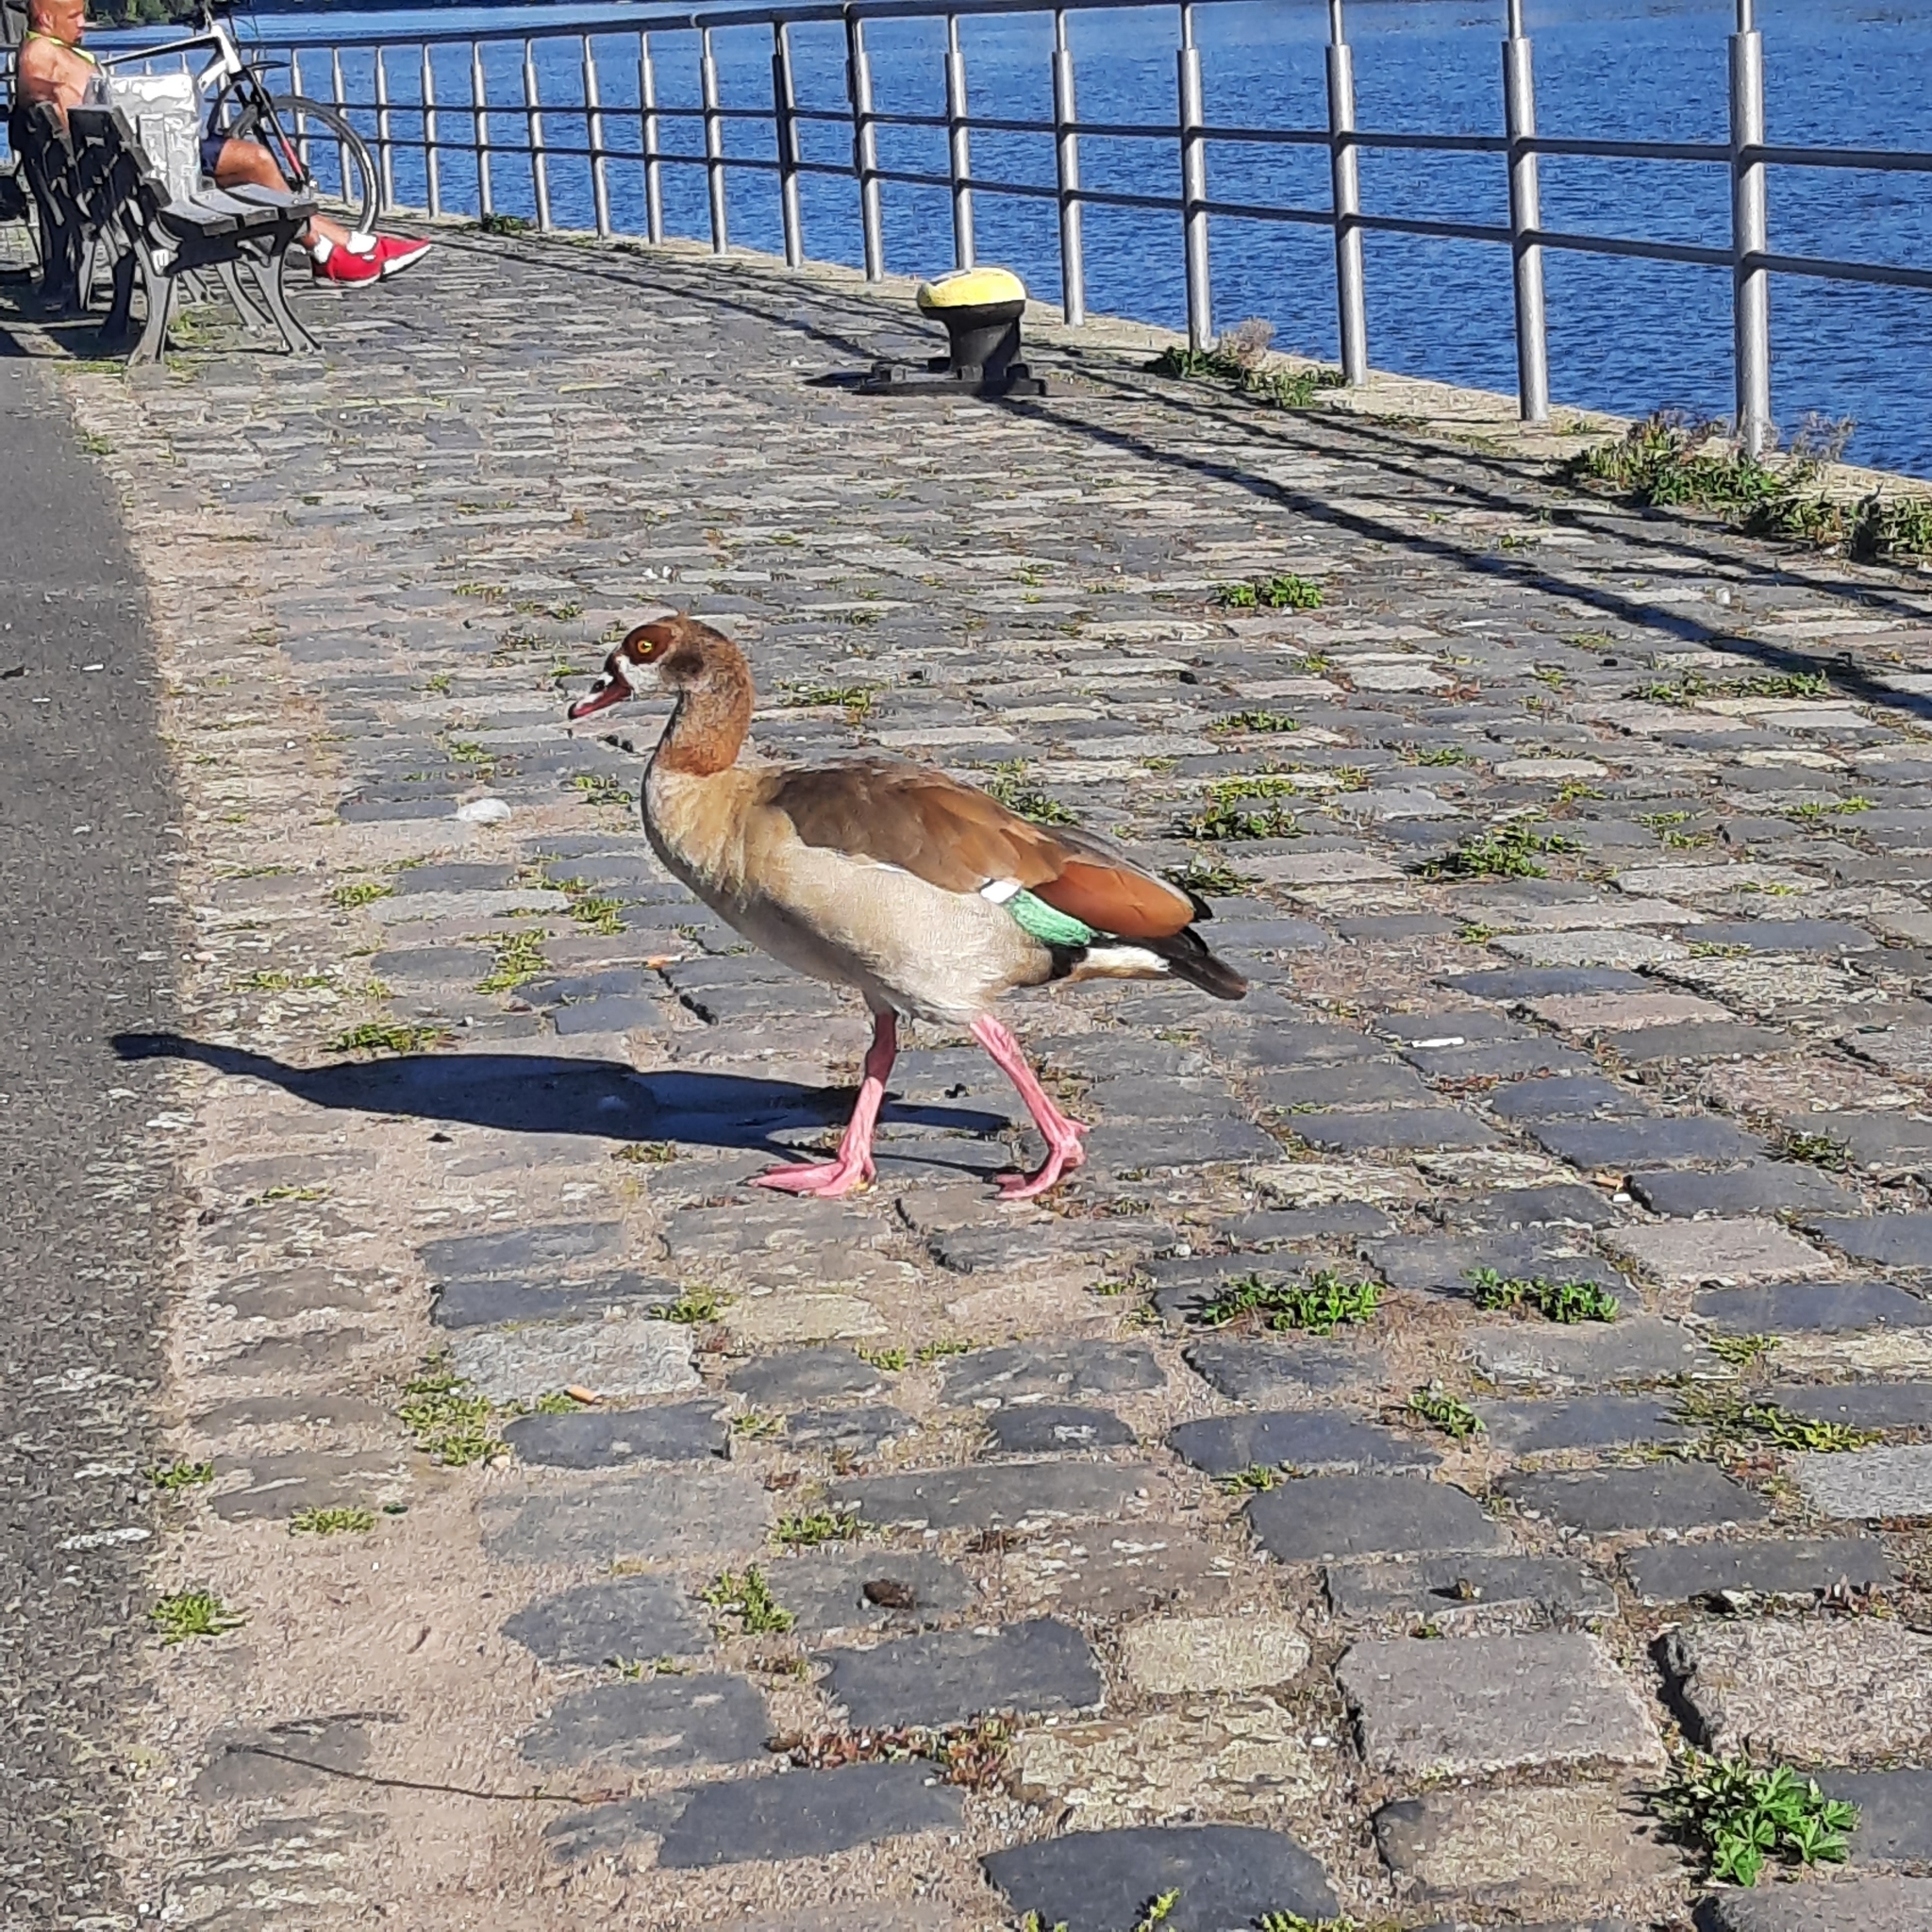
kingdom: Animalia
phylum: Chordata
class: Aves
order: Anseriformes
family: Anatidae
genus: Alopochen
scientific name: Alopochen aegyptiaca
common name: Egyptian goose
